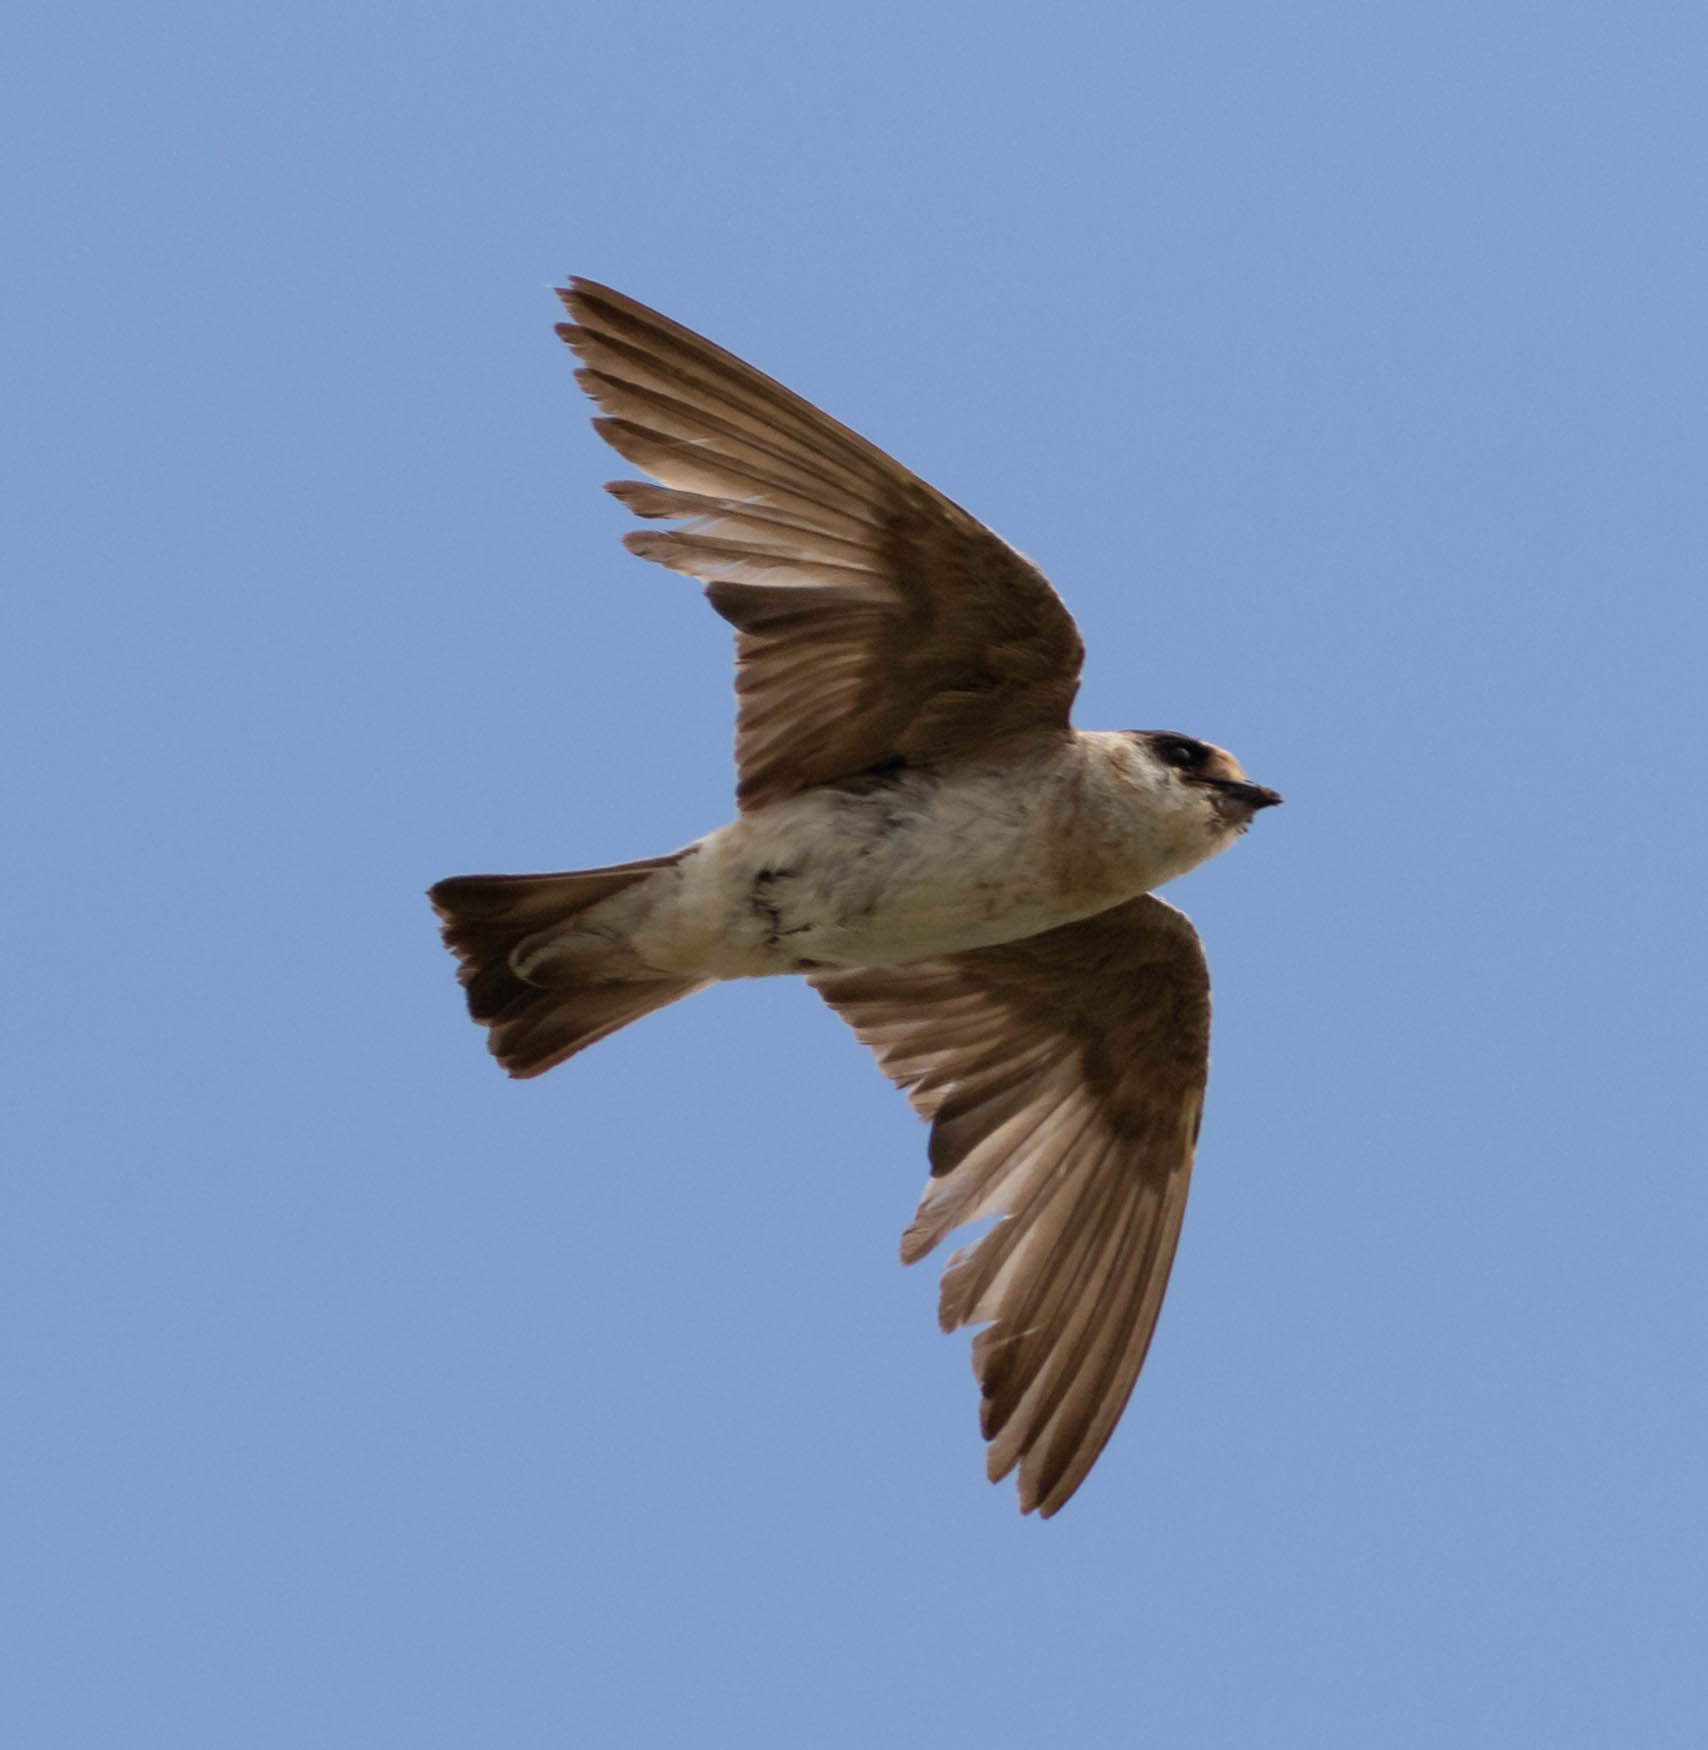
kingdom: Animalia
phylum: Chordata
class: Aves
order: Passeriformes
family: Hirundinidae
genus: Petrochelidon
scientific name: Petrochelidon fulva
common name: Cave swallow
